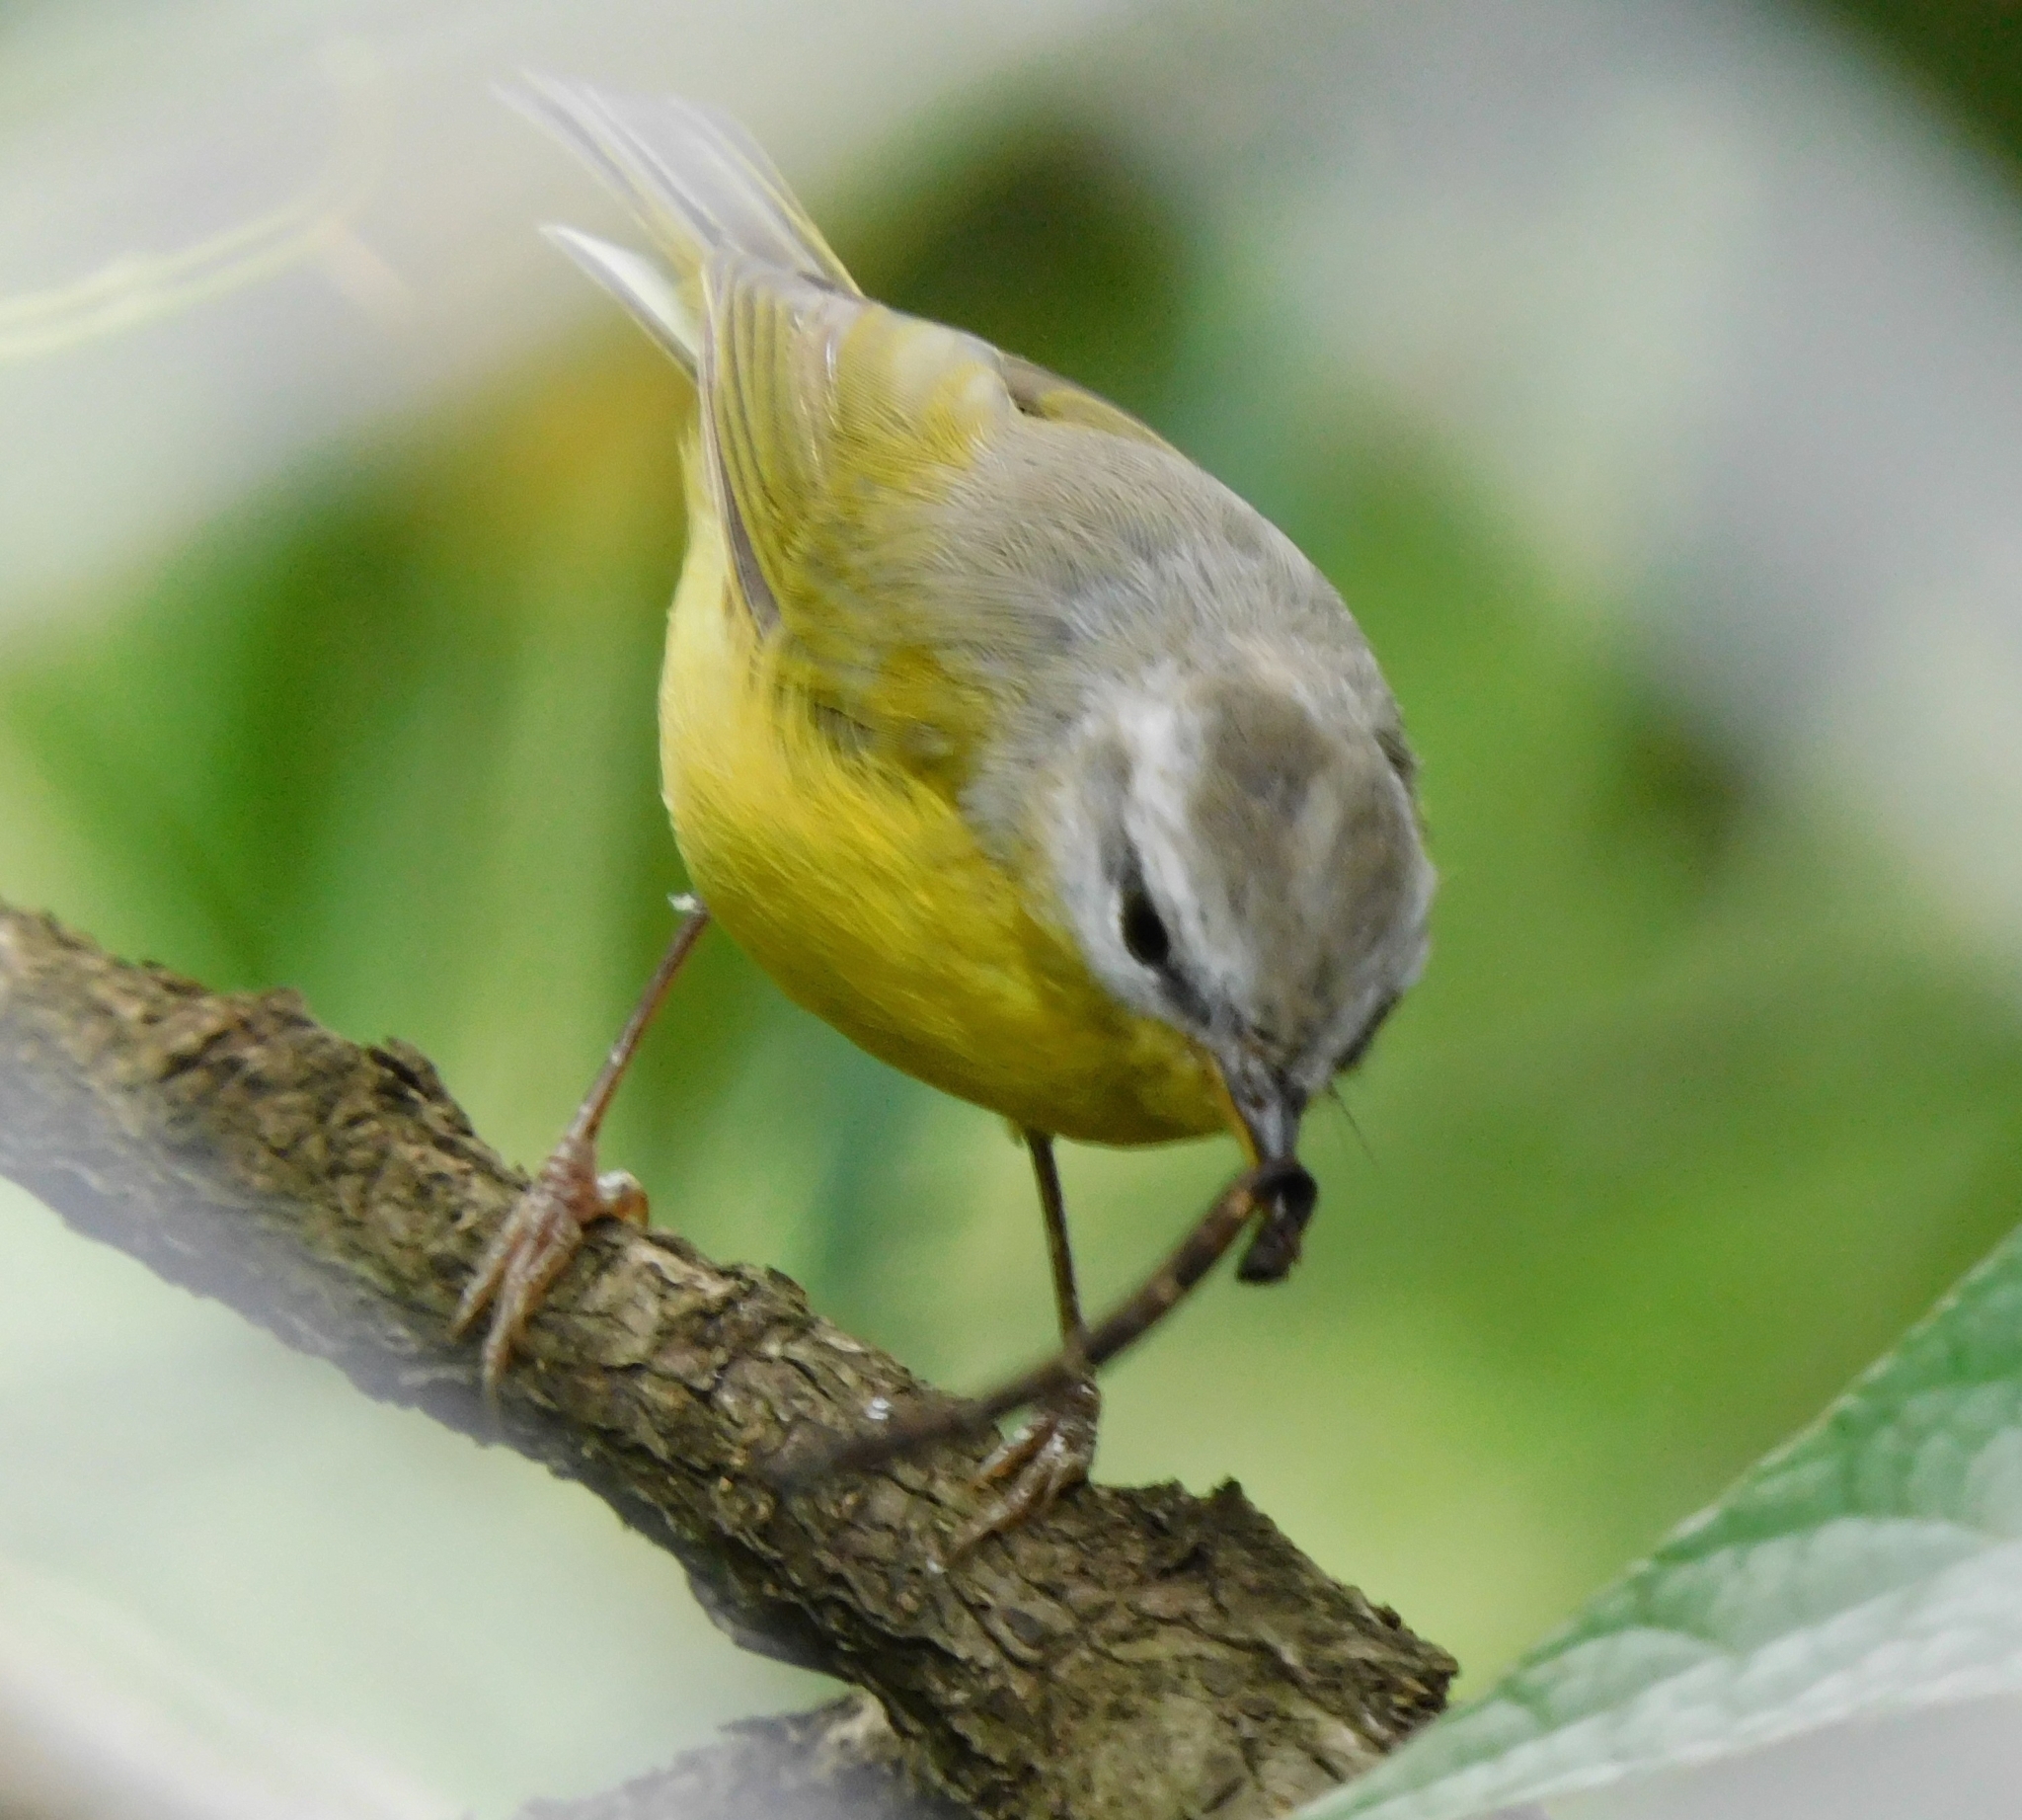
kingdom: Animalia
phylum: Chordata
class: Aves
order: Passeriformes
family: Phylloscopidae
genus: Phylloscopus
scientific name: Phylloscopus xanthoschistos
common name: Grey-hooded warbler
